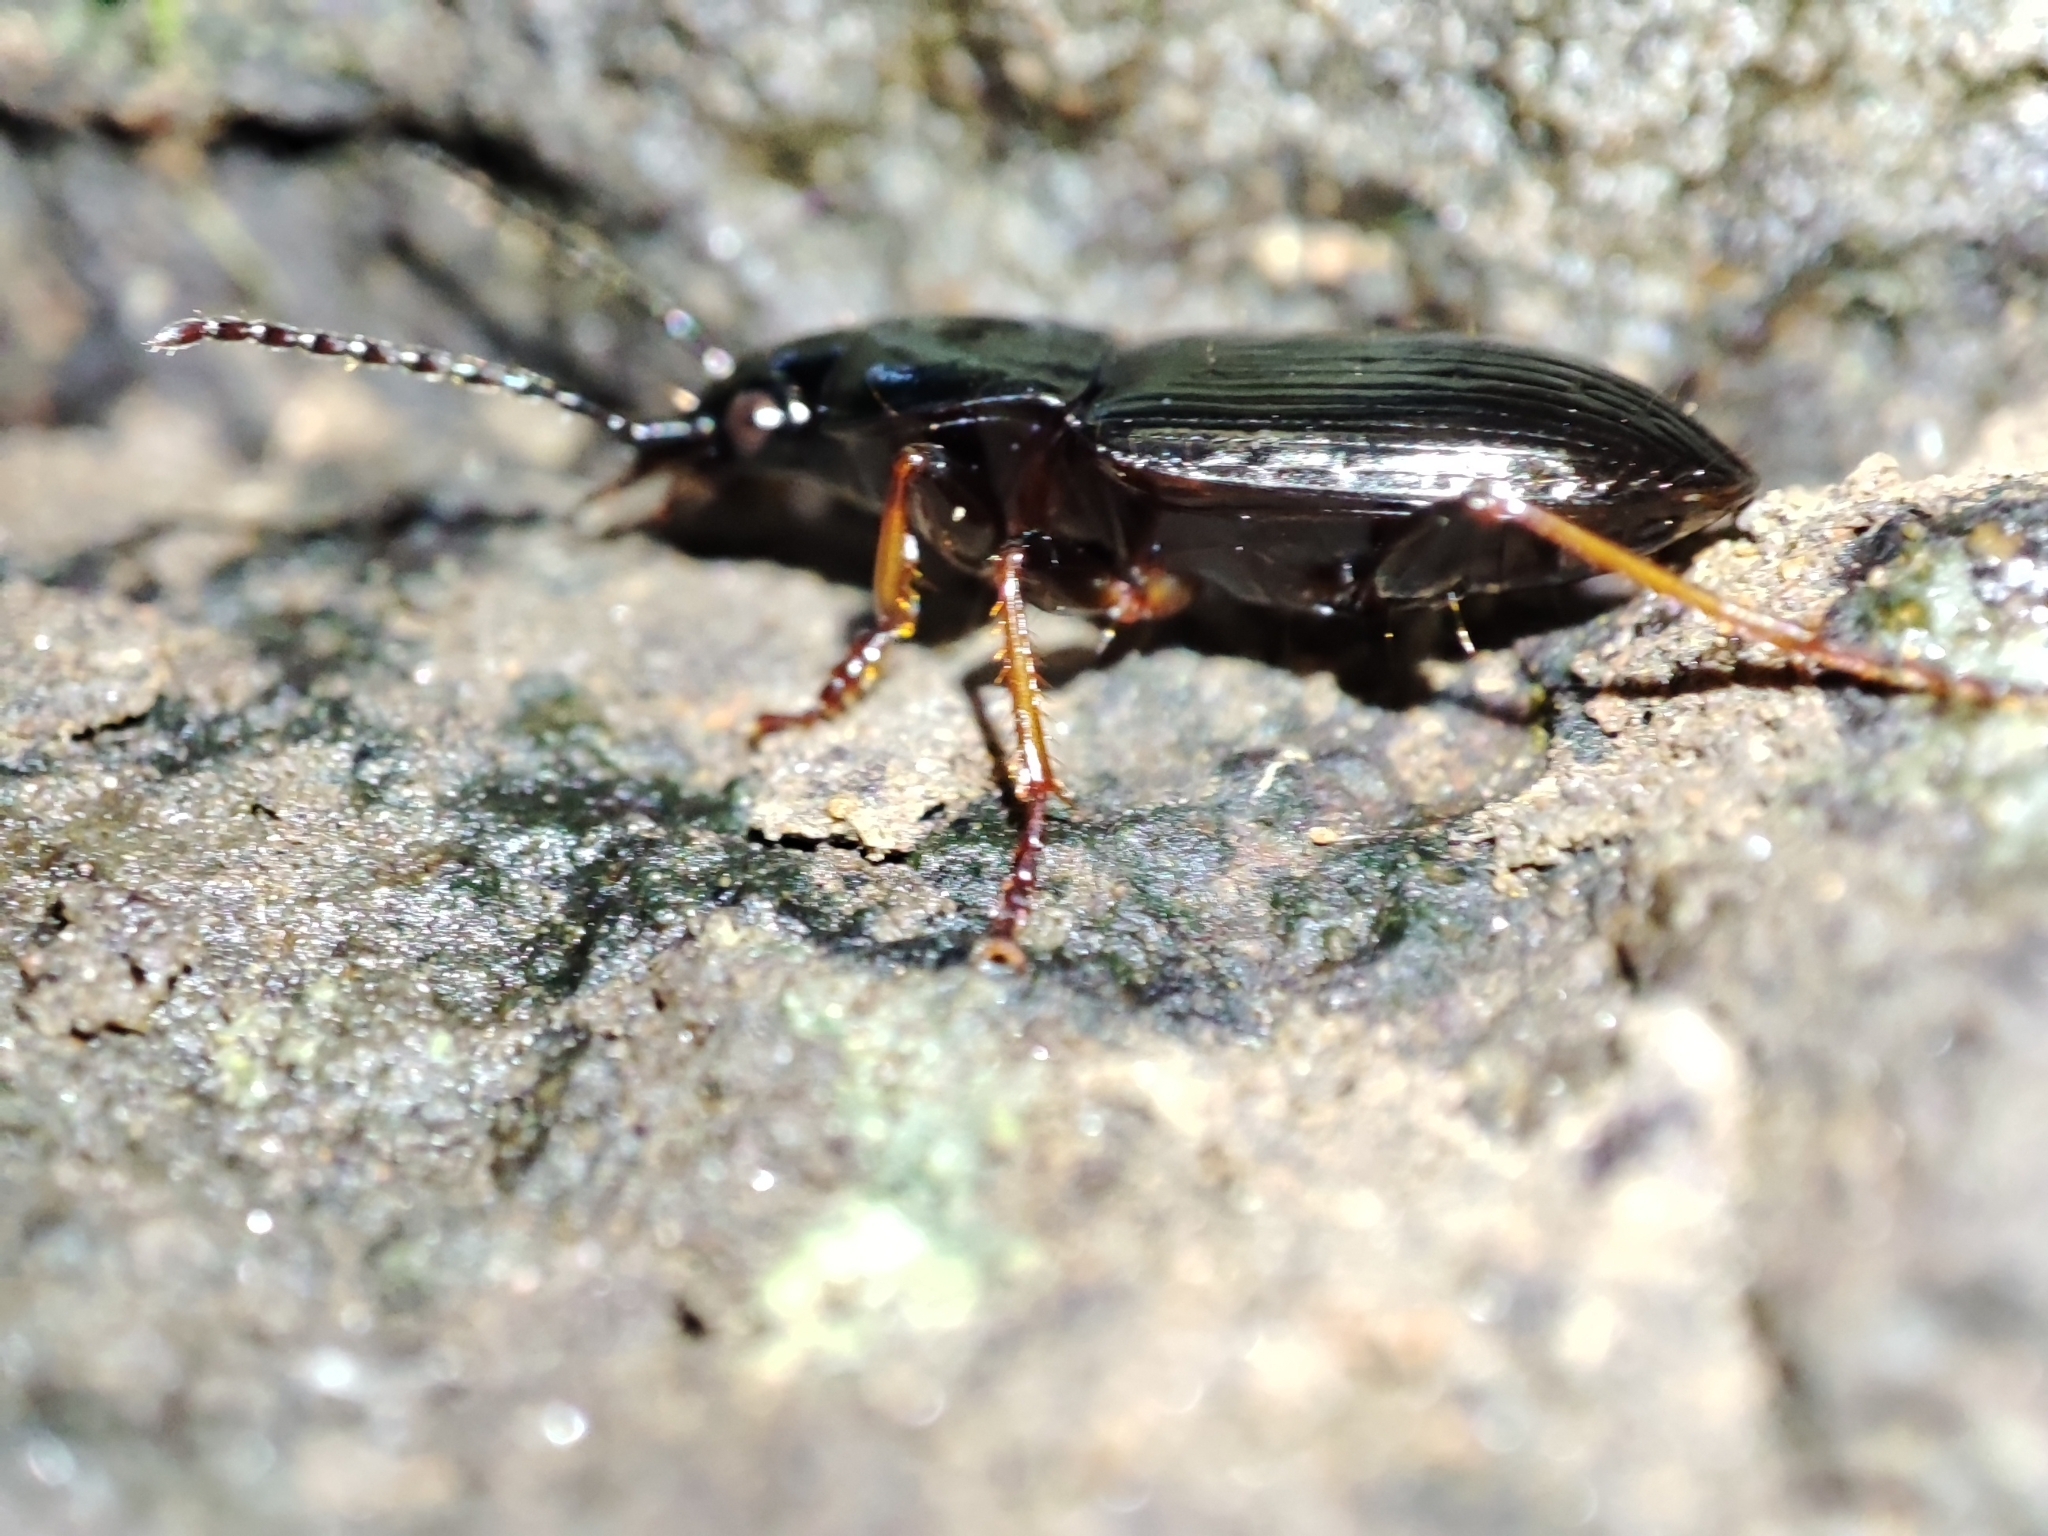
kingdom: Animalia
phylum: Arthropoda
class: Insecta
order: Coleoptera
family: Carabidae
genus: Pterostichus
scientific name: Pterostichus oblongopunctatus
